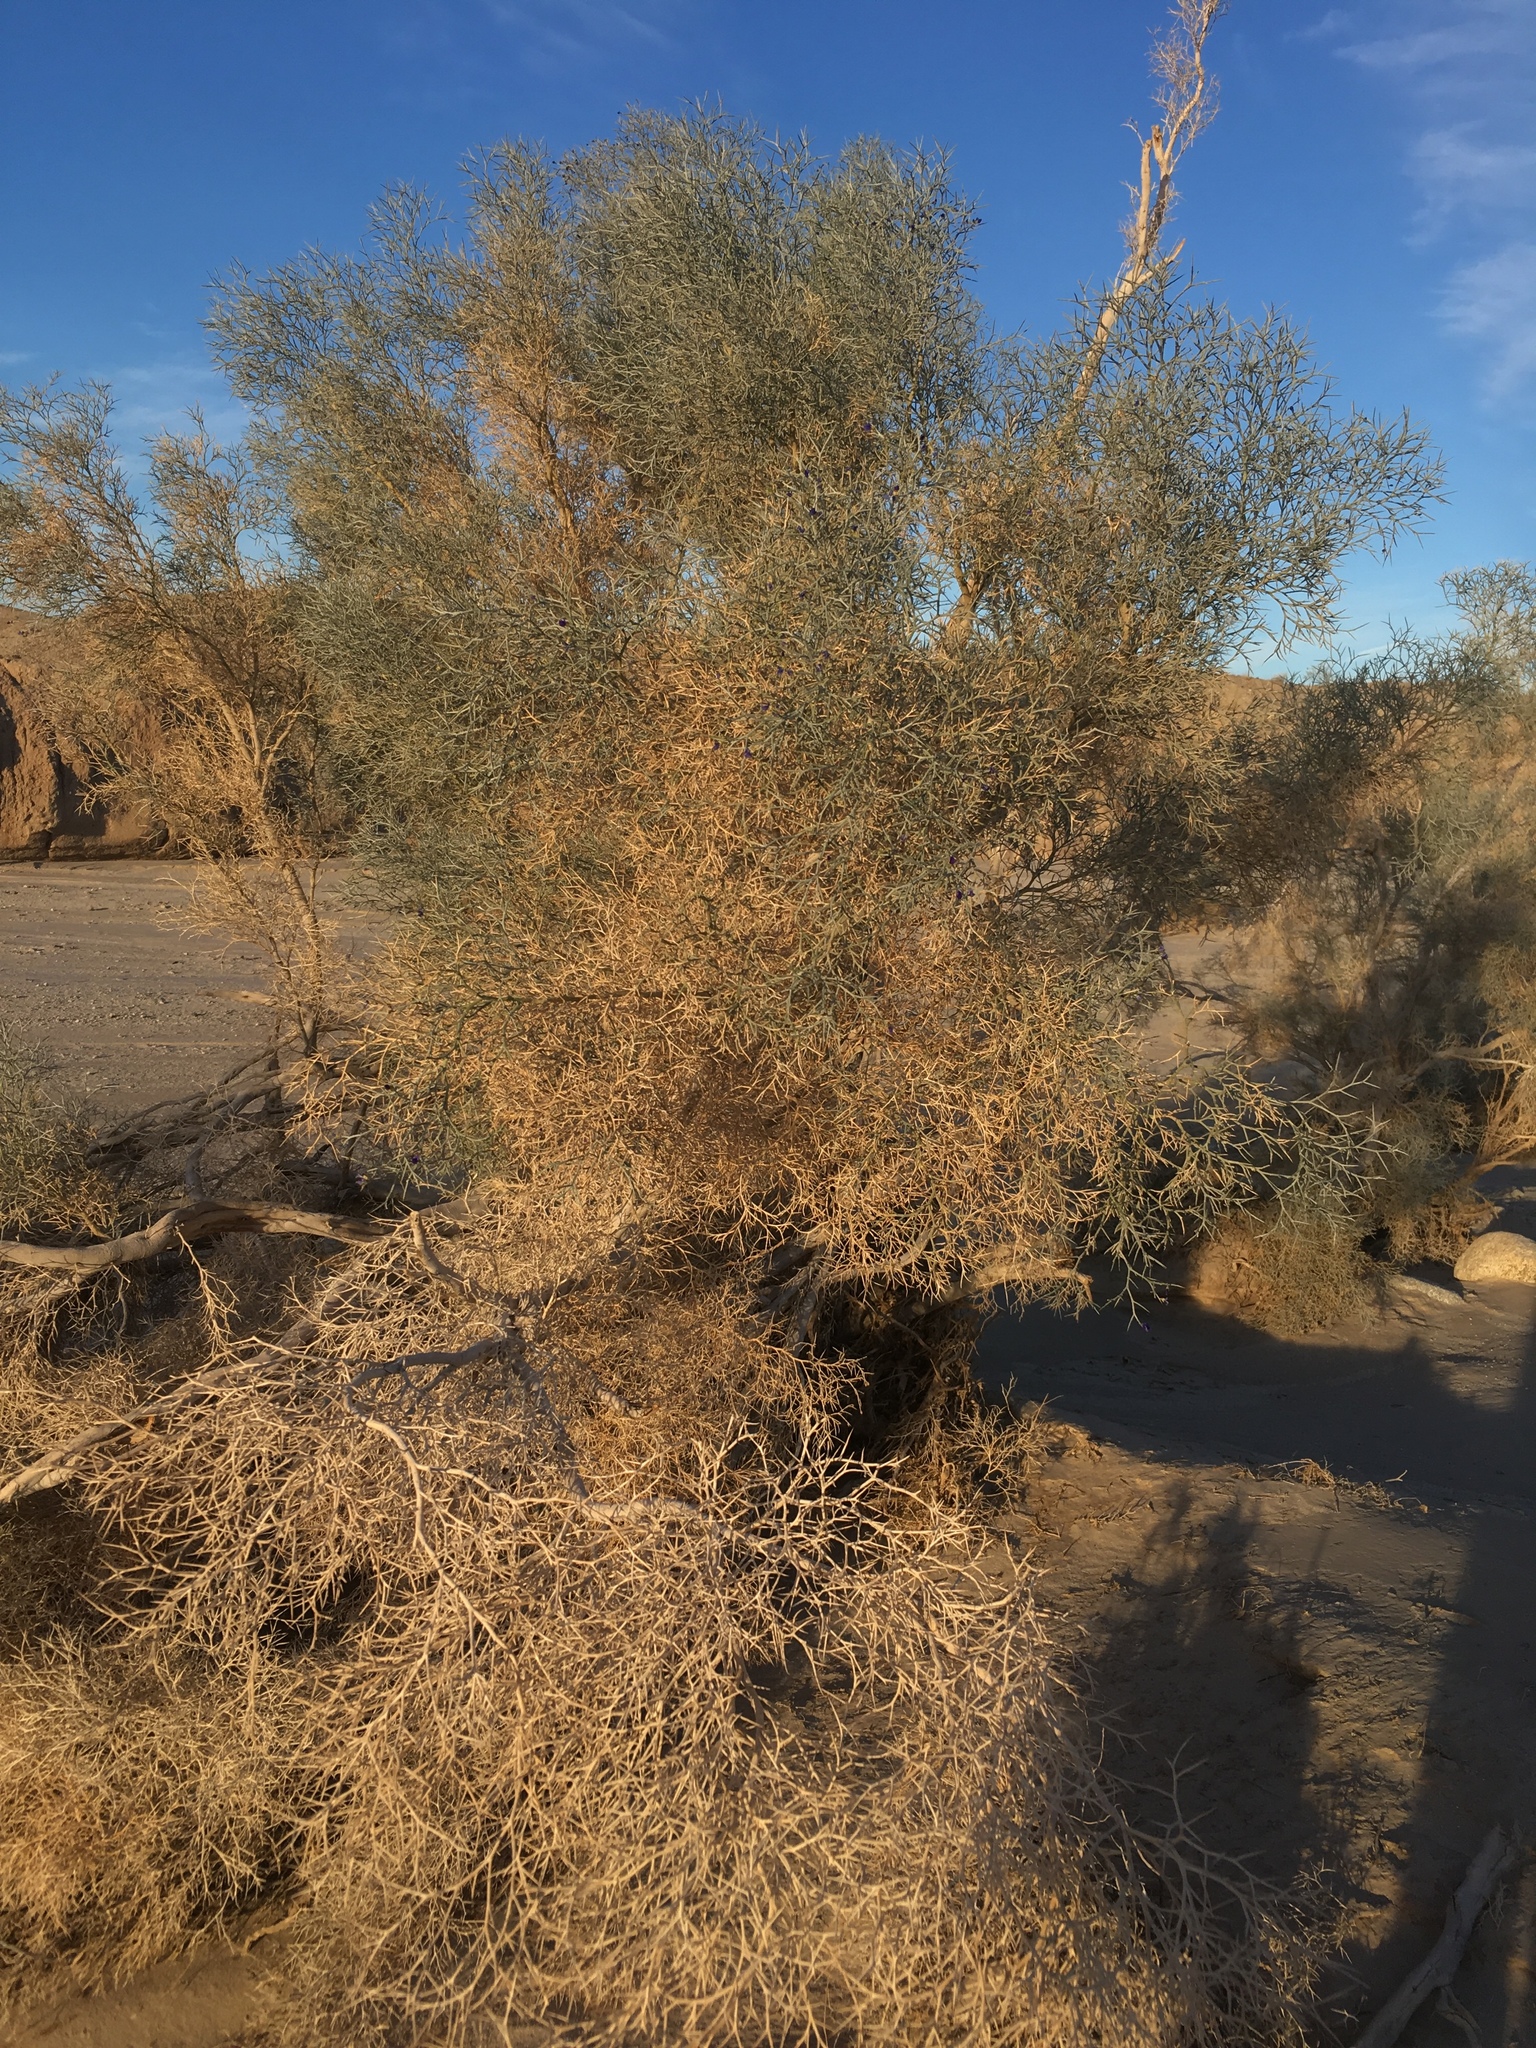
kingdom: Plantae
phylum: Tracheophyta
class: Magnoliopsida
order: Fabales
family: Fabaceae
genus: Psorothamnus
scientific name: Psorothamnus spinosus
